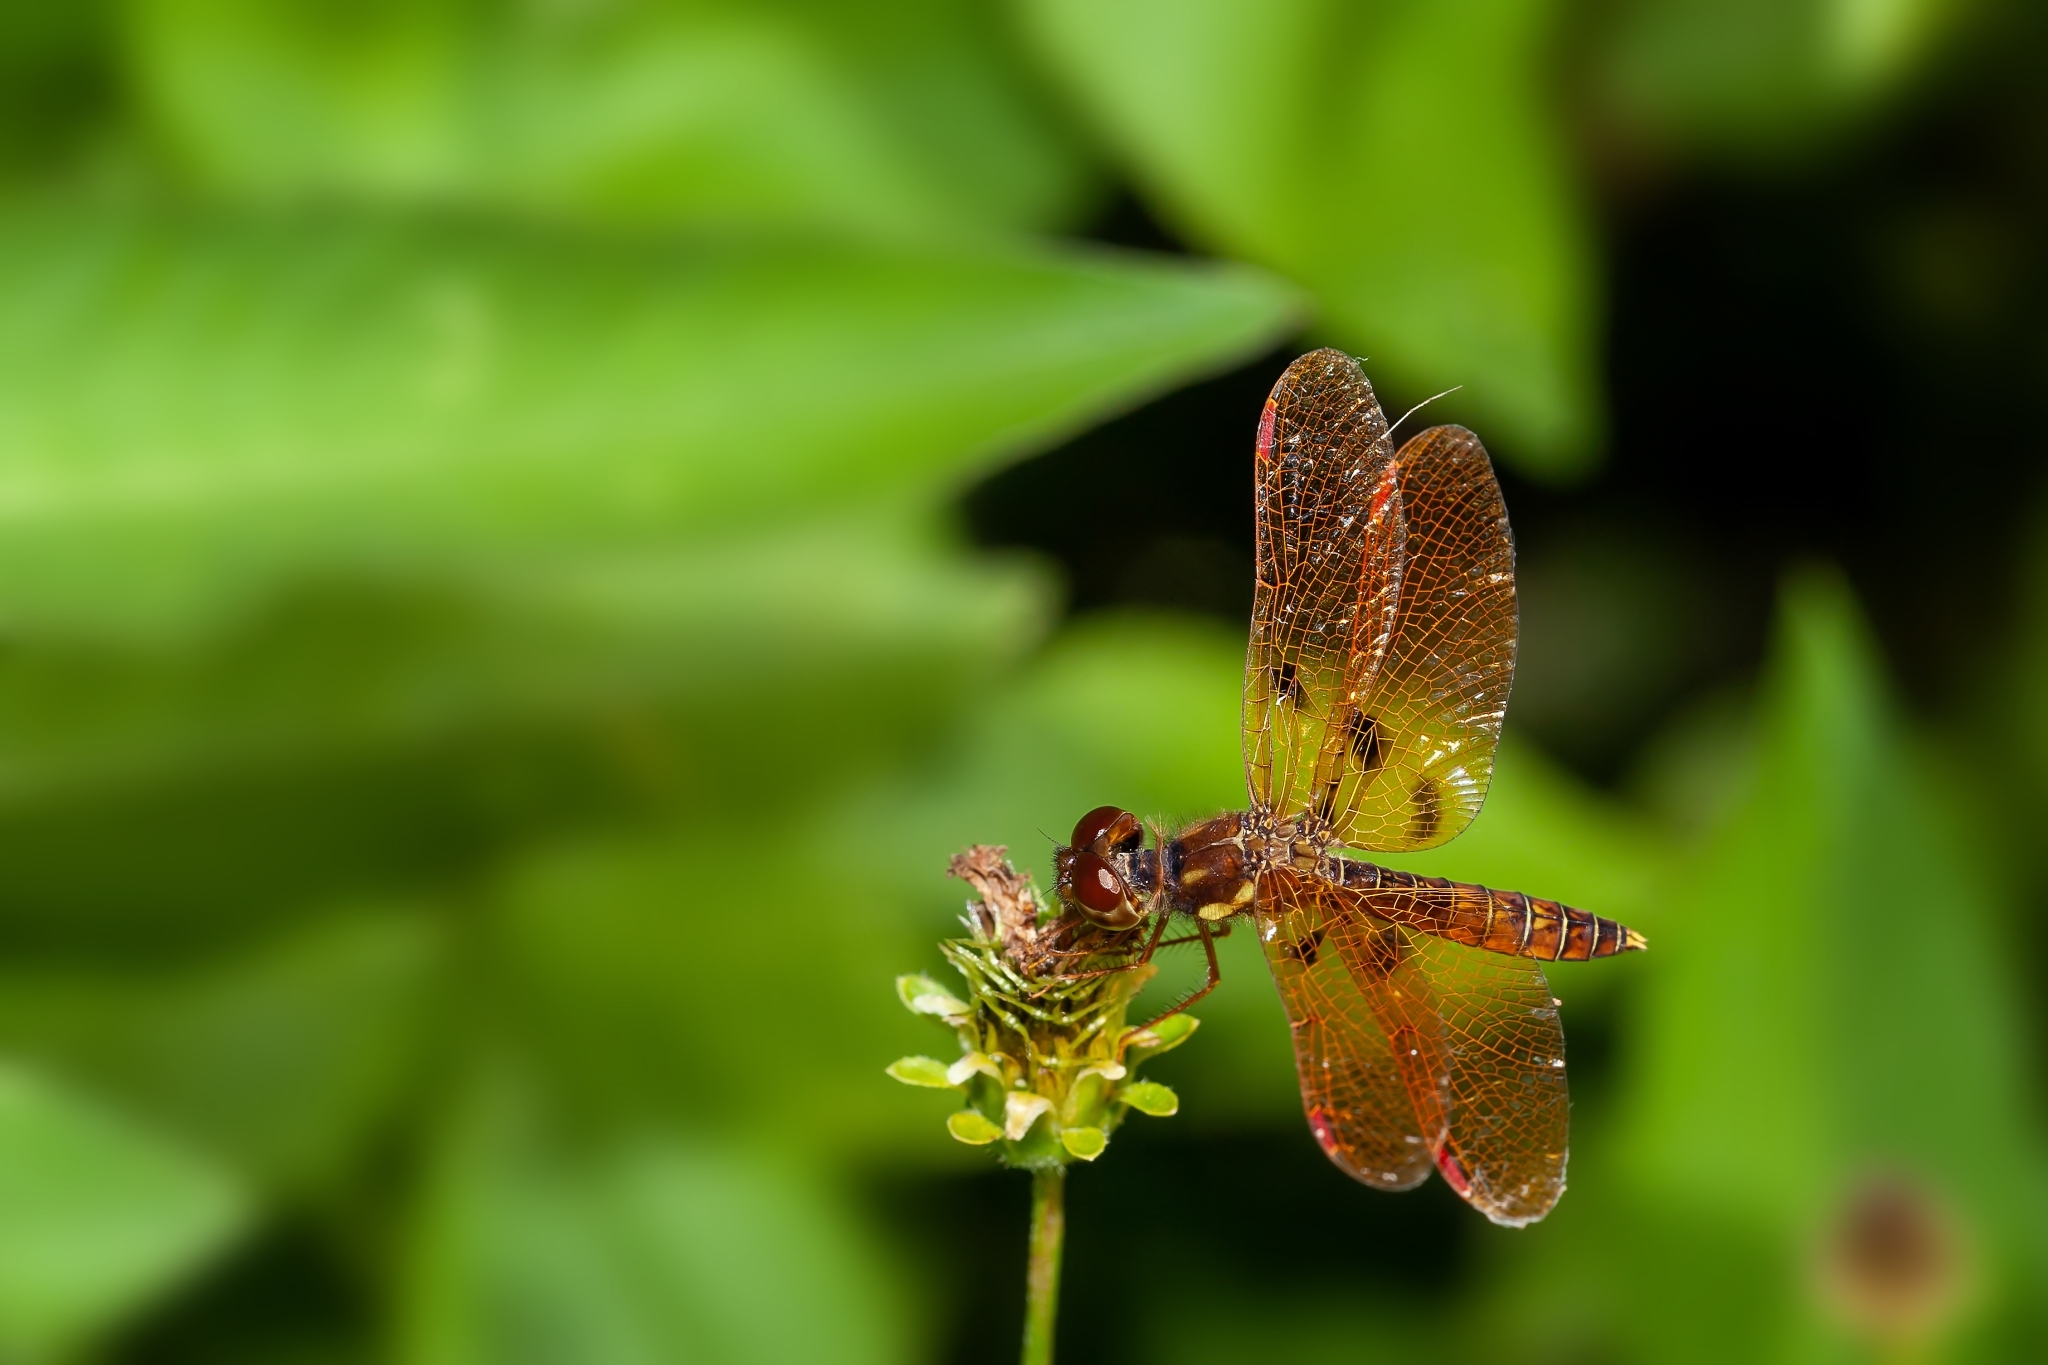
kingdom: Animalia
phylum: Arthropoda
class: Insecta
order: Odonata
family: Libellulidae
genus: Perithemis
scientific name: Perithemis tenera
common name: Eastern amberwing
